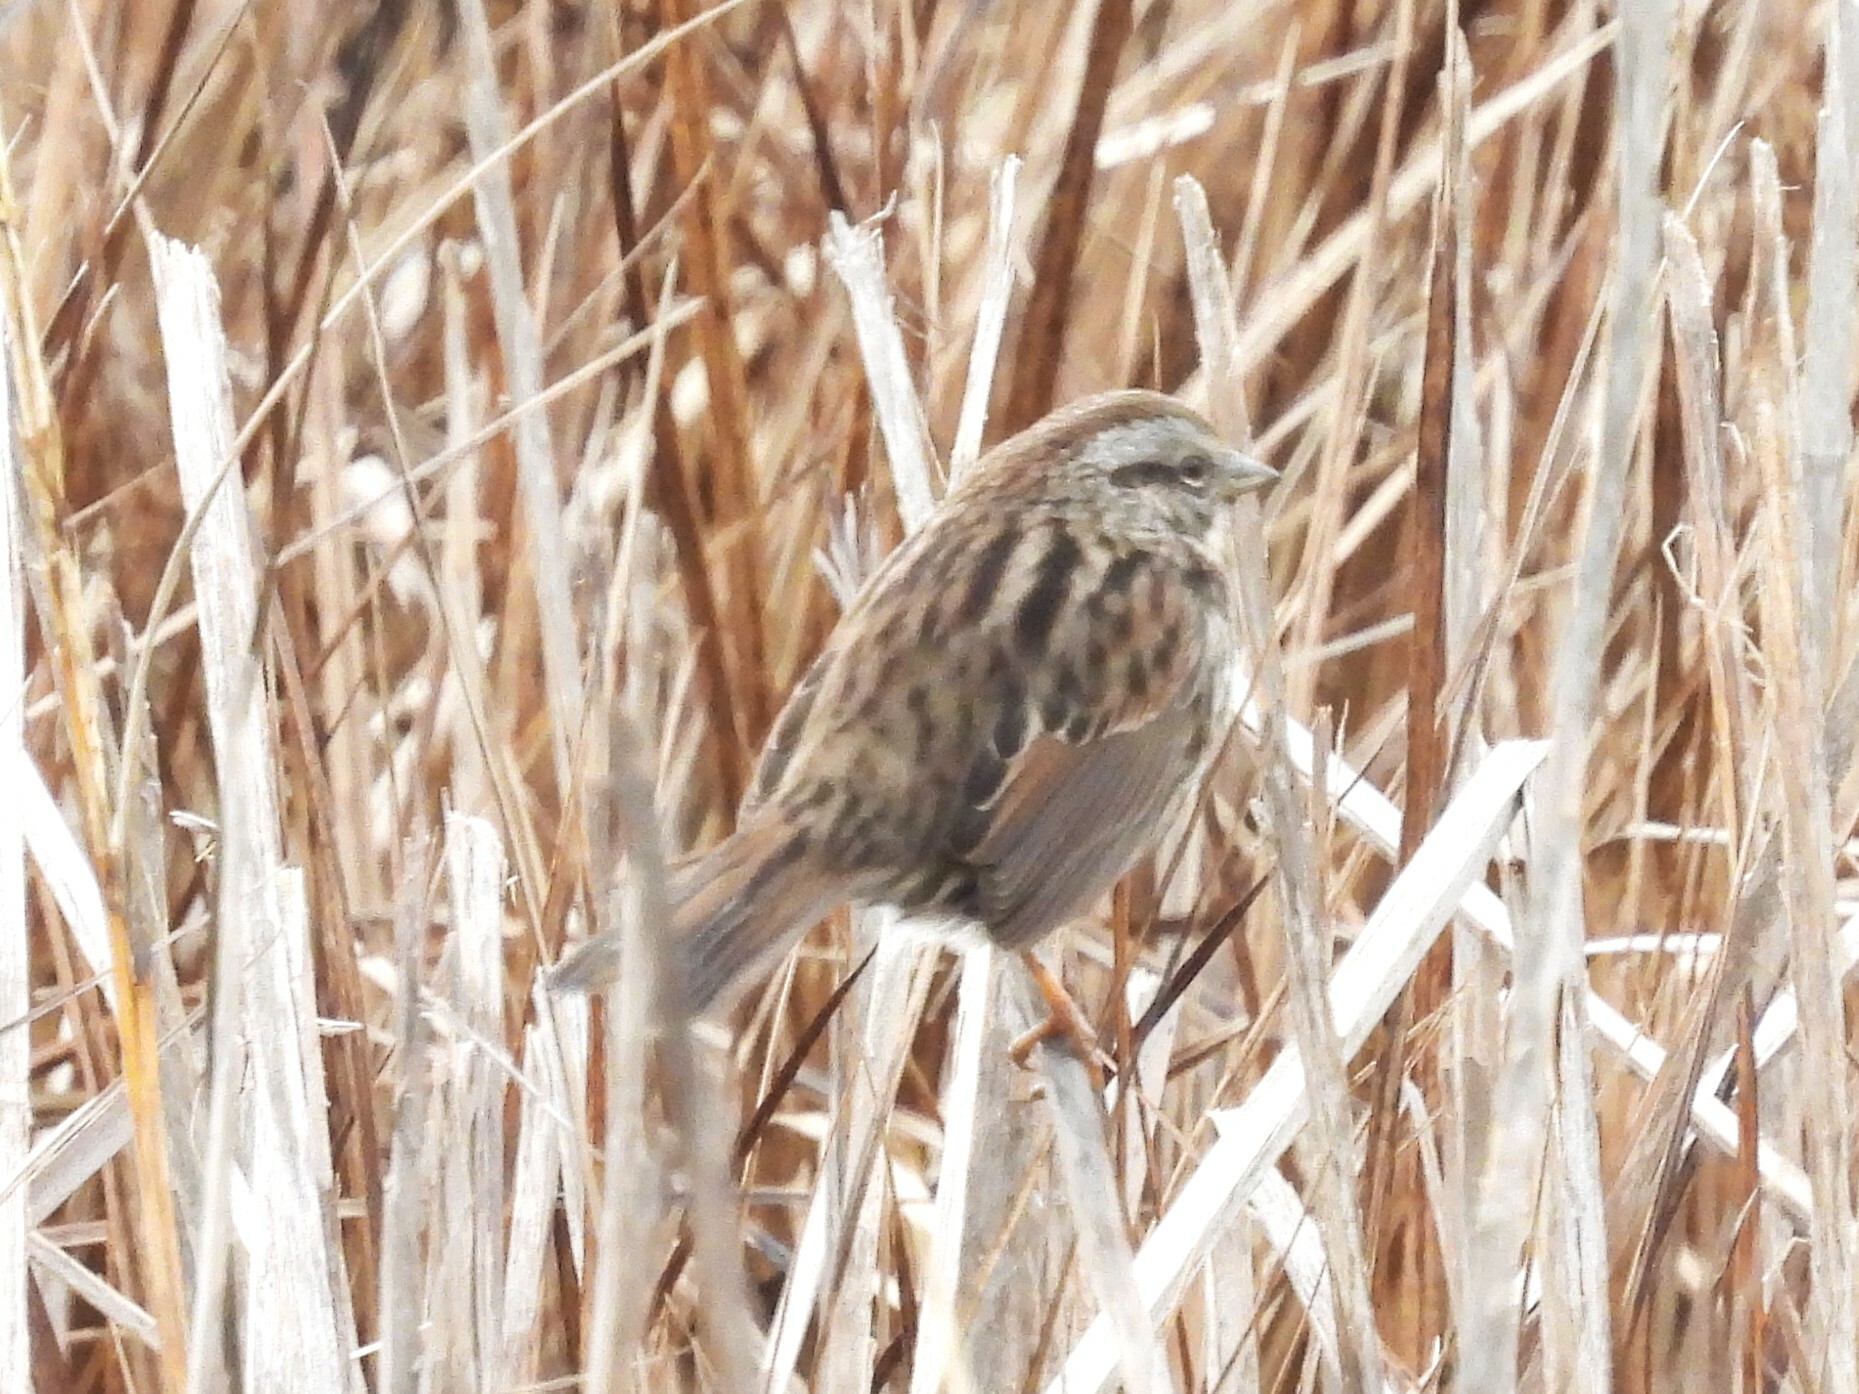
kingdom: Animalia
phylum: Chordata
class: Aves
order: Passeriformes
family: Passerellidae
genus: Melospiza
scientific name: Melospiza melodia
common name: Song sparrow
